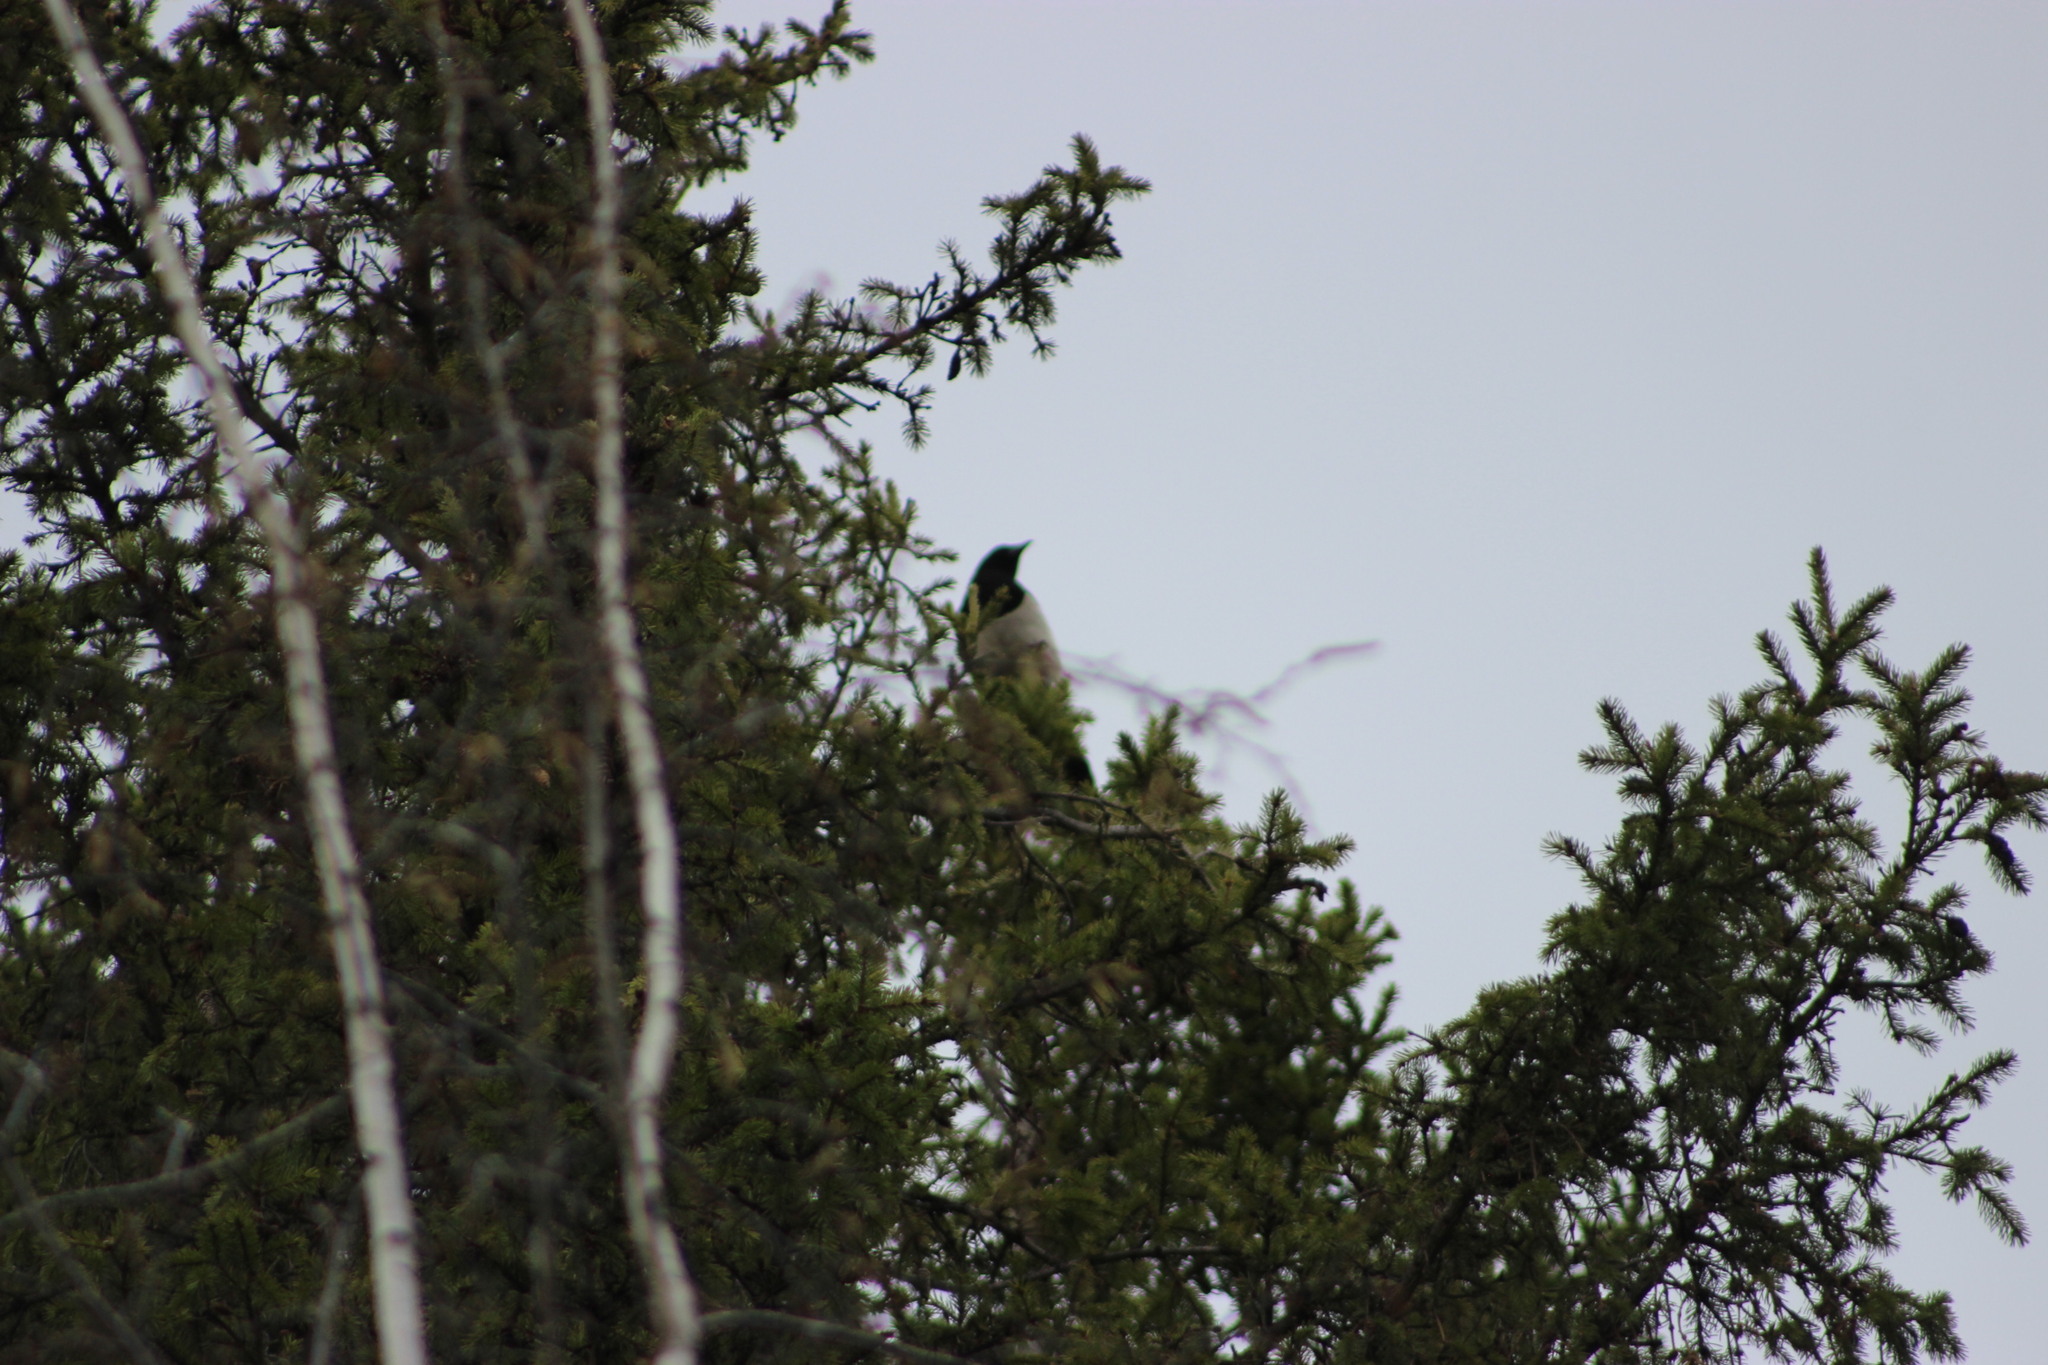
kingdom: Animalia
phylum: Chordata
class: Aves
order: Passeriformes
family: Corvidae
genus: Pica
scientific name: Pica pica
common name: Eurasian magpie
